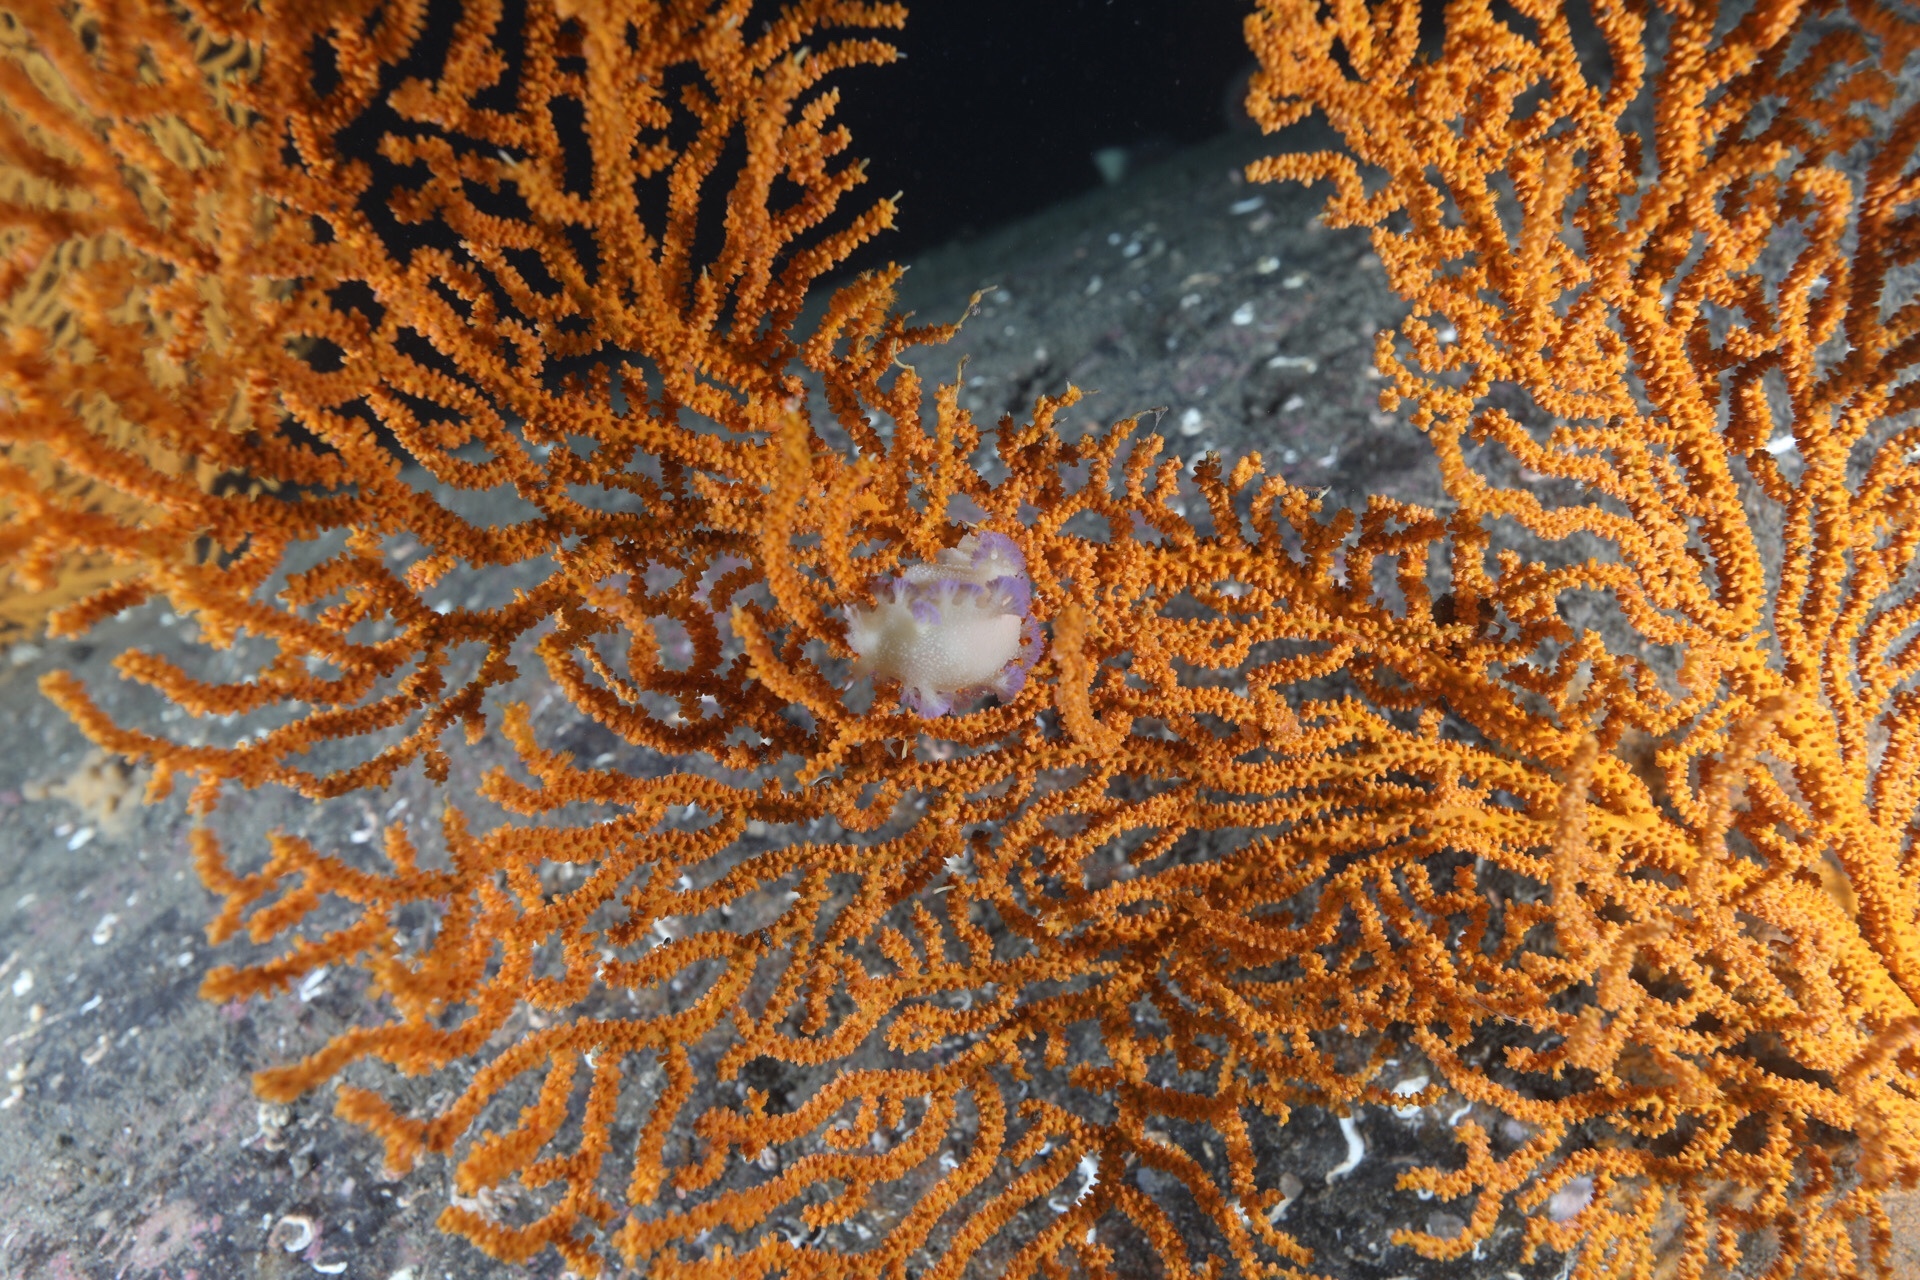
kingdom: Animalia
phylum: Mollusca
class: Gastropoda
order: Nudibranchia
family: Tritoniidae
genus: Tritonia
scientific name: Tritonia griegi
